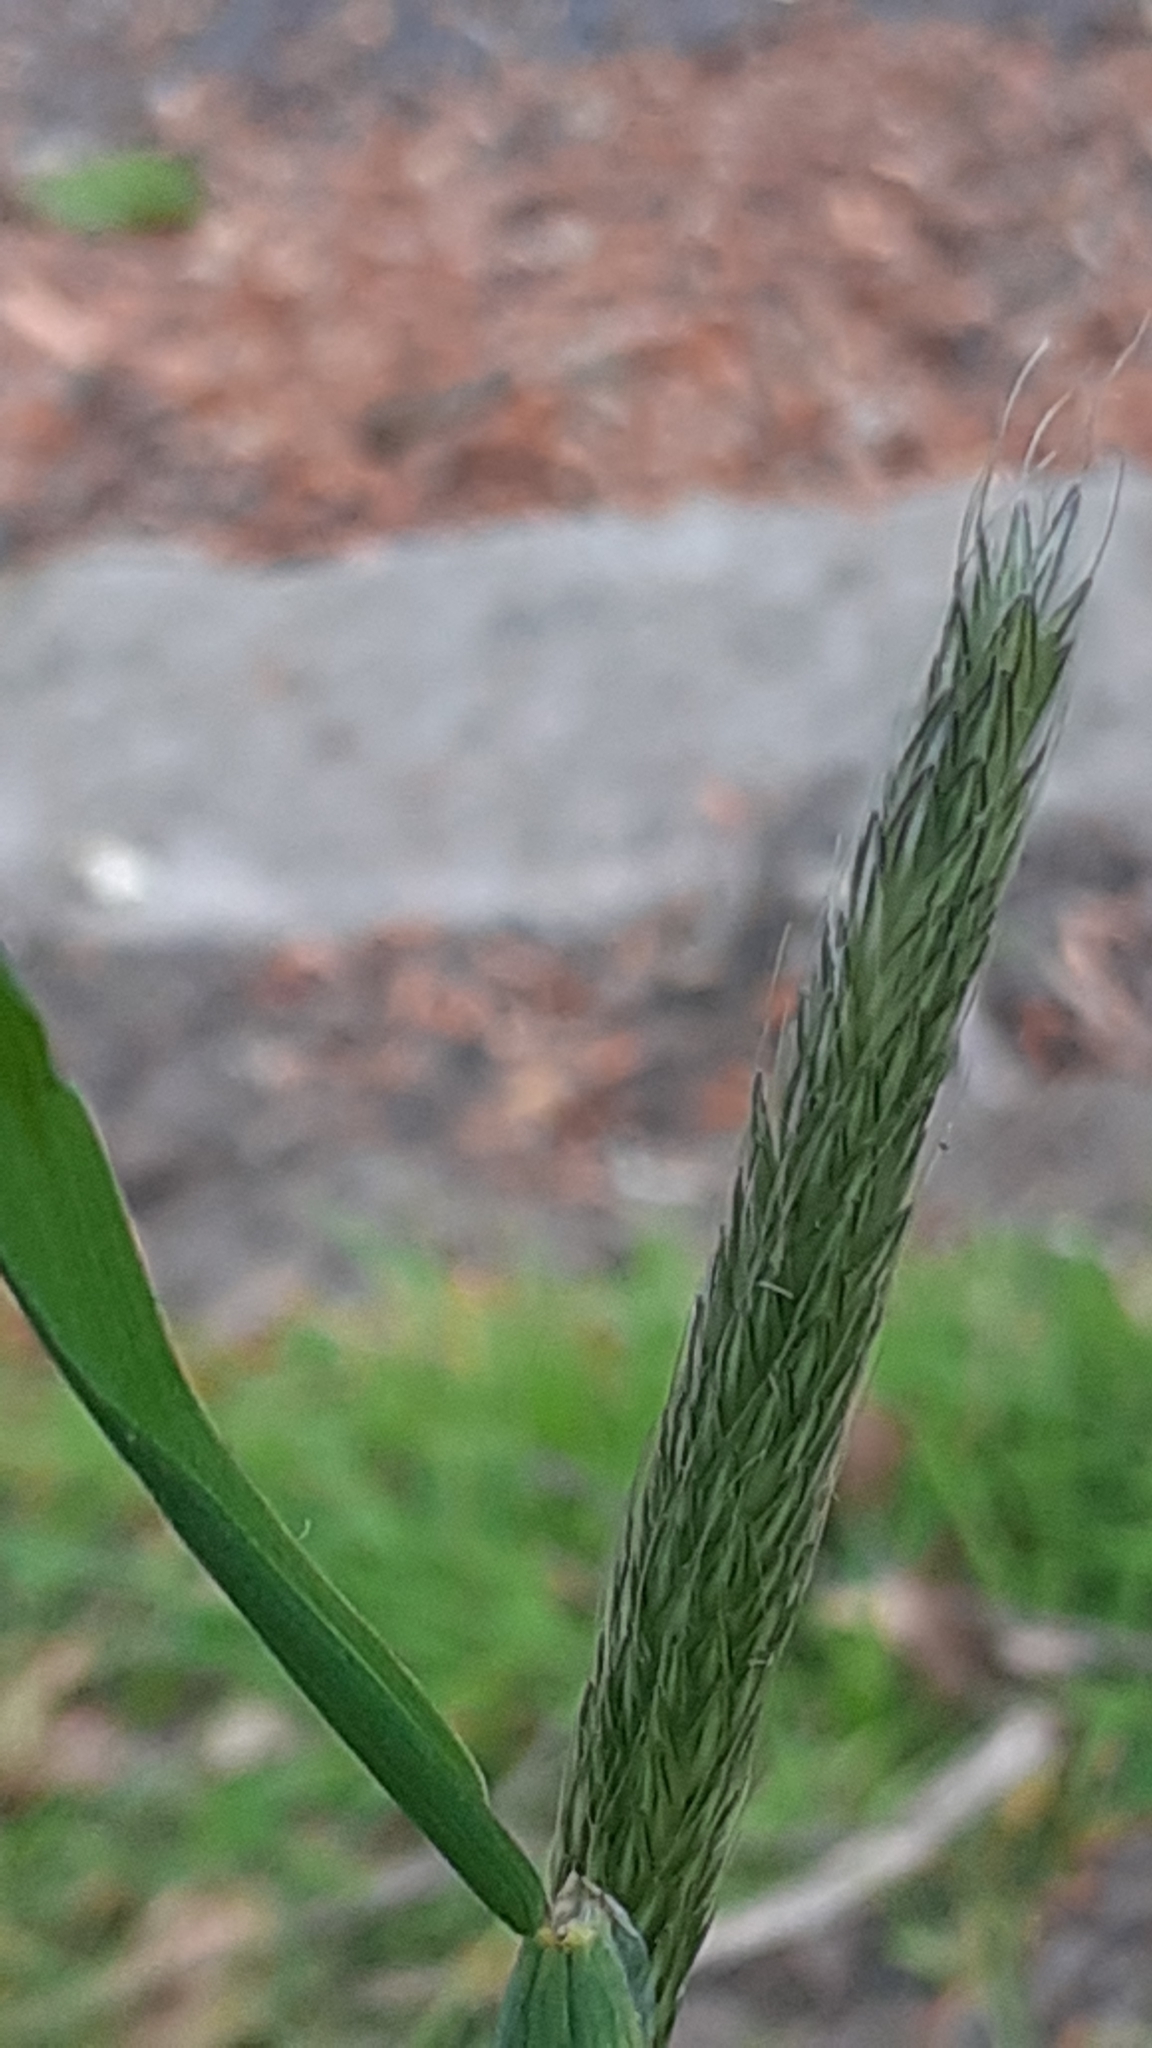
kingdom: Plantae
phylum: Tracheophyta
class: Liliopsida
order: Poales
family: Poaceae
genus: Alopecurus
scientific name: Alopecurus pratensis
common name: Meadow foxtail
